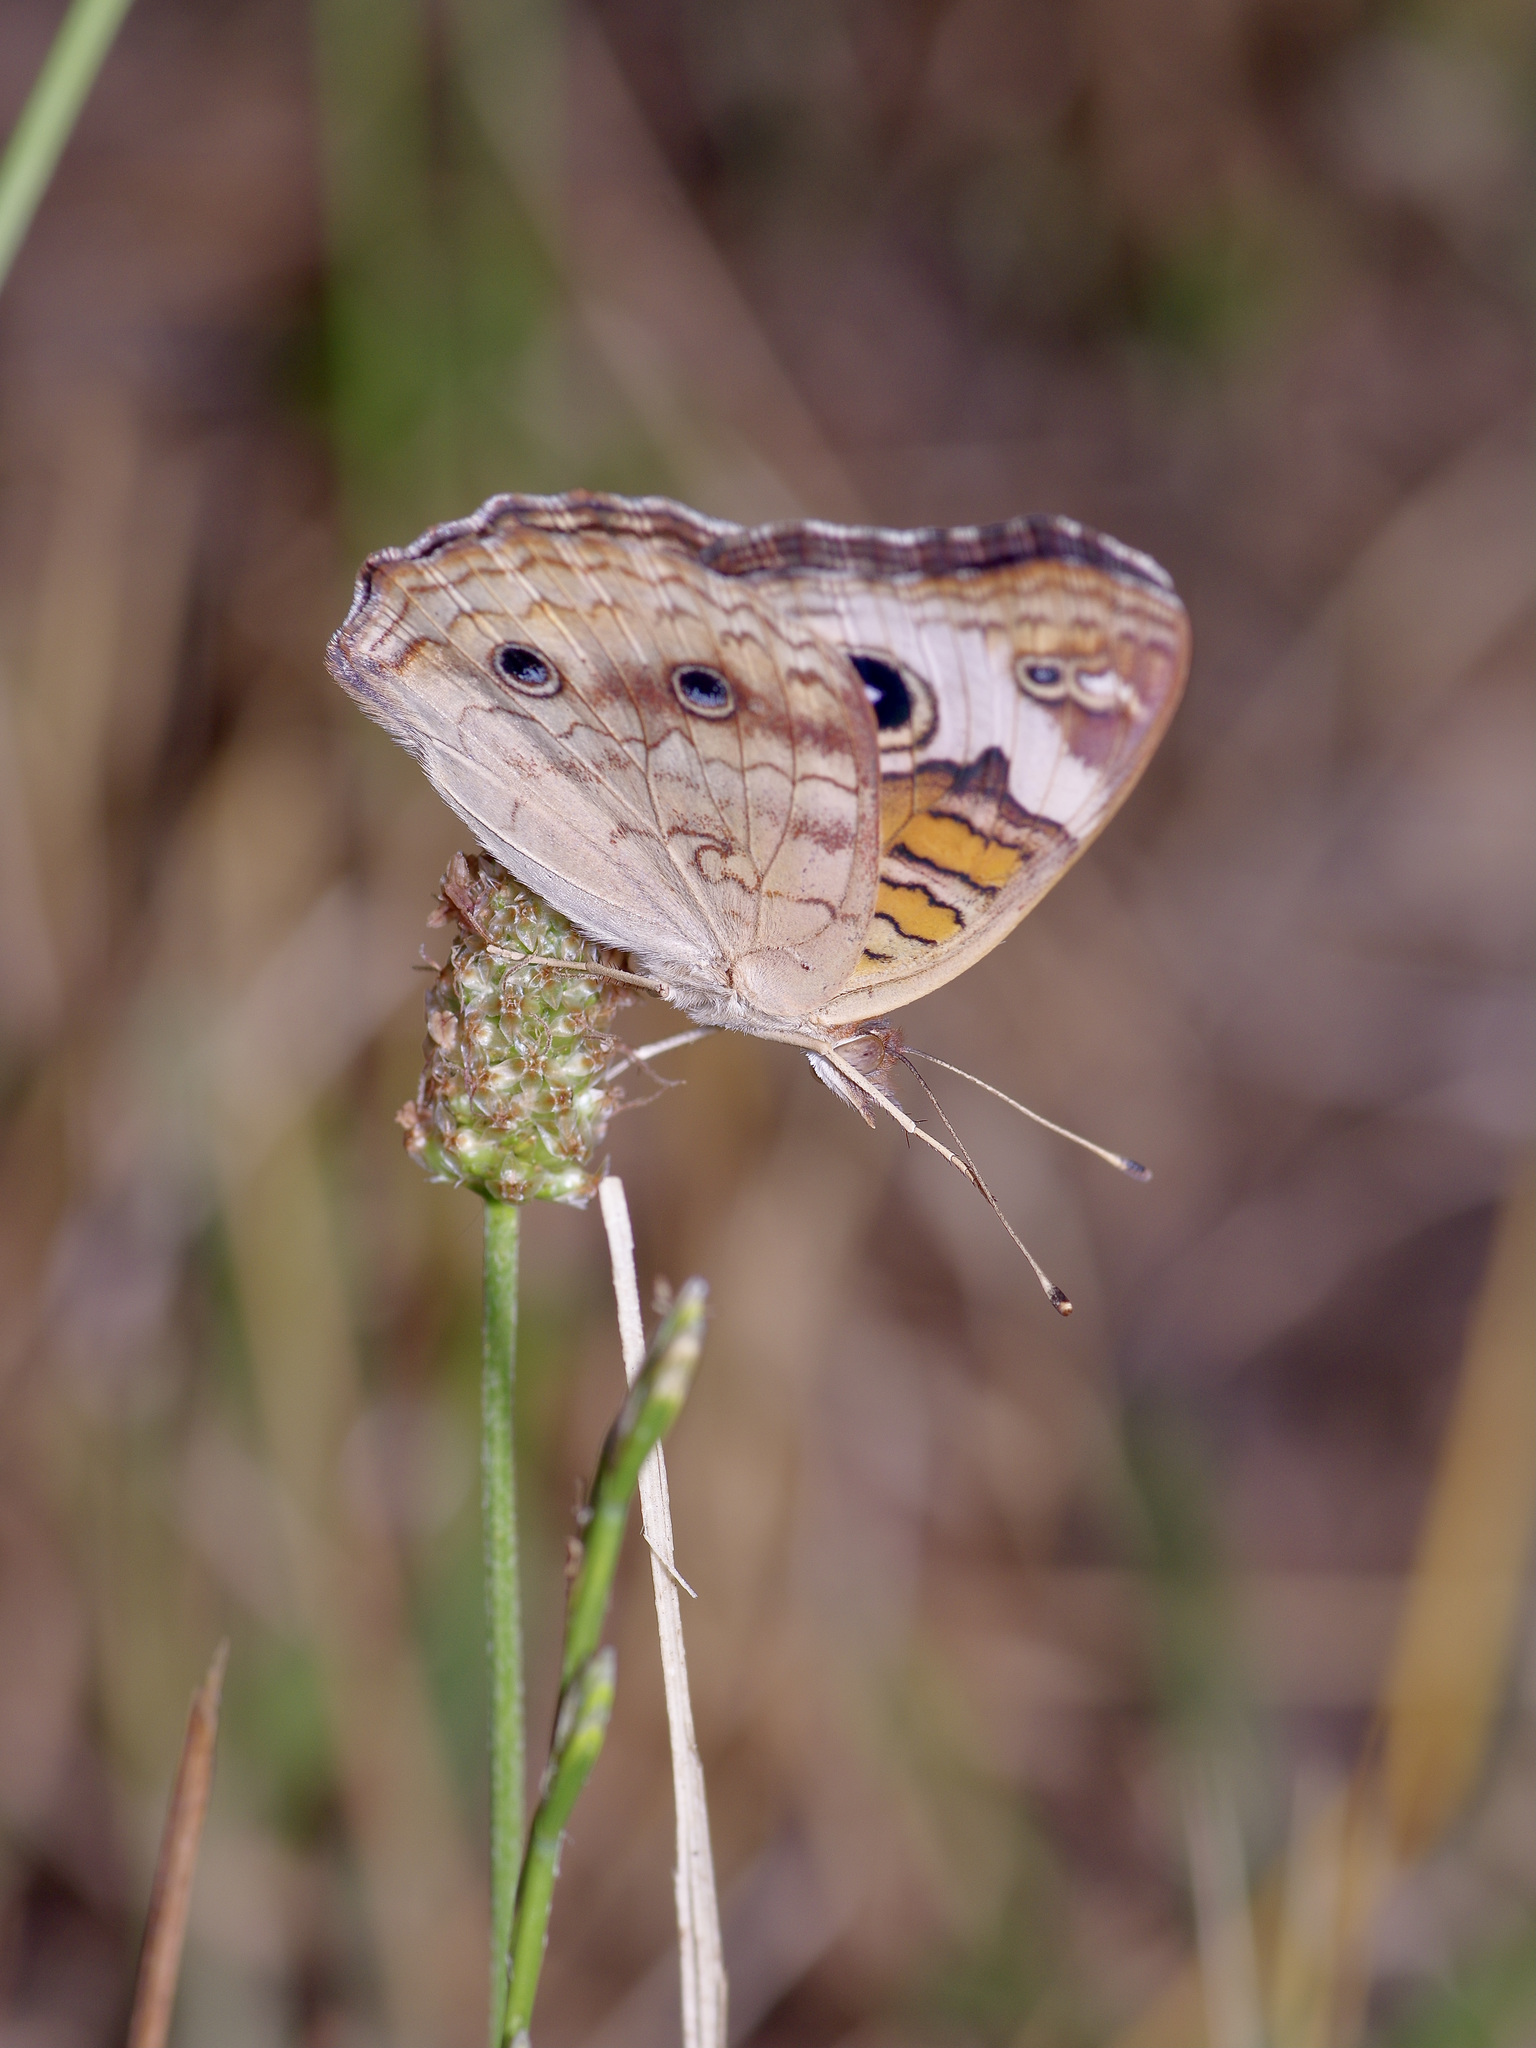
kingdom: Animalia
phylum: Arthropoda
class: Insecta
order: Lepidoptera
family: Nymphalidae
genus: Junonia
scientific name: Junonia coenia
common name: Common buckeye
